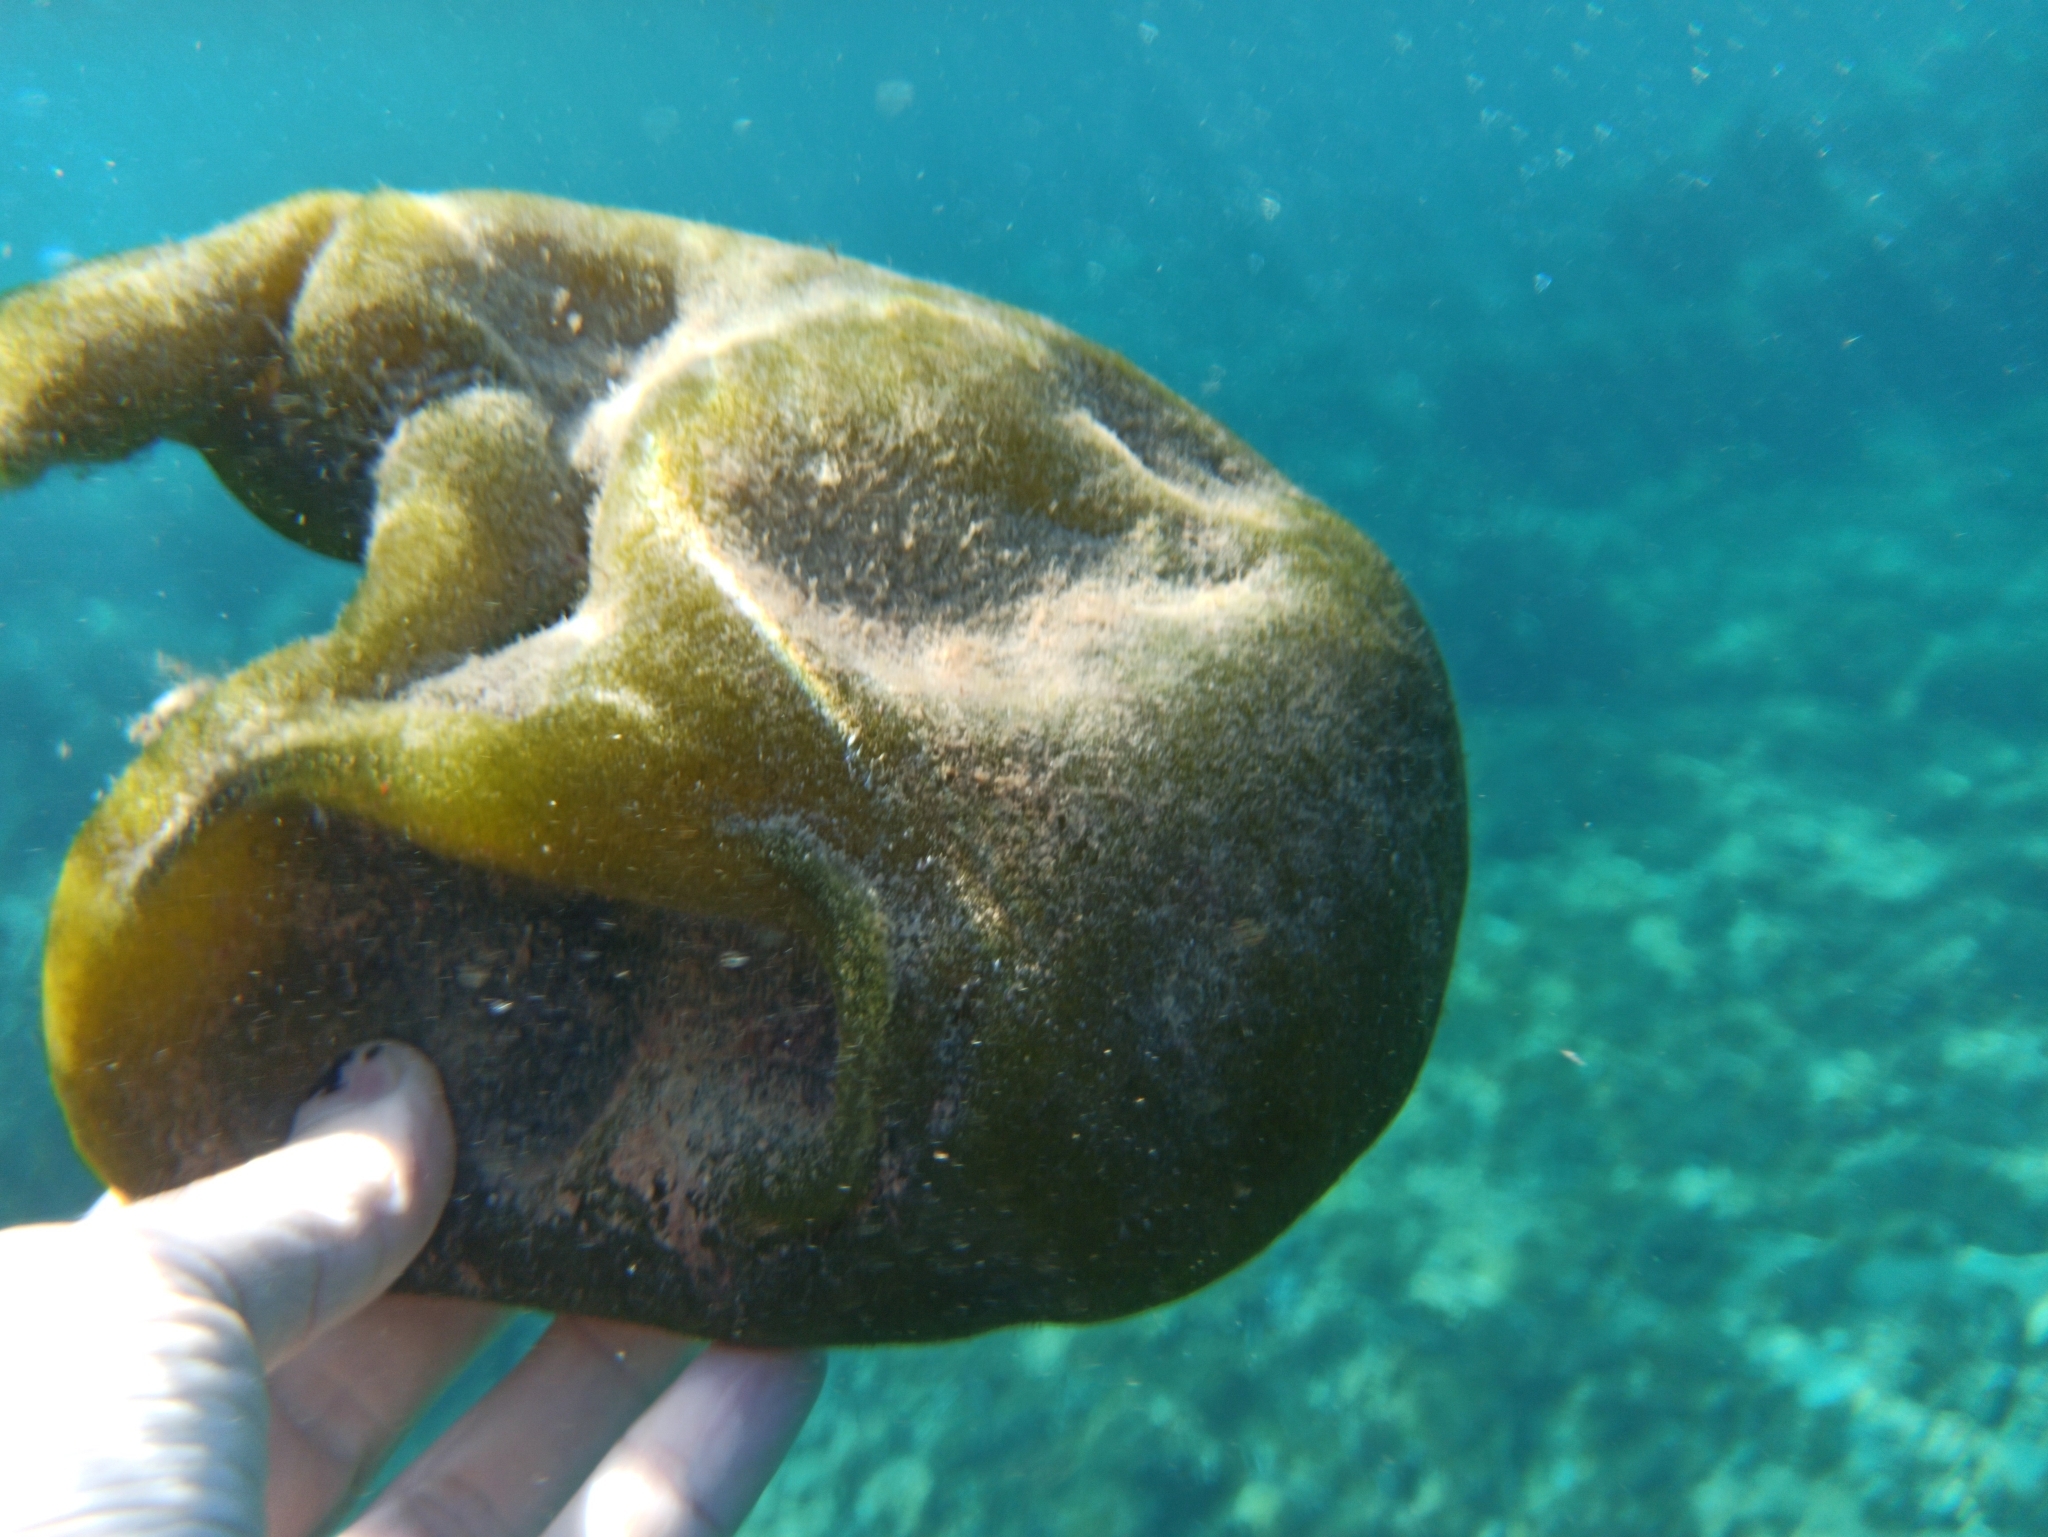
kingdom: Plantae
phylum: Chlorophyta
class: Ulvophyceae
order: Bryopsidales
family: Codiaceae
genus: Codium
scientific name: Codium bursa
